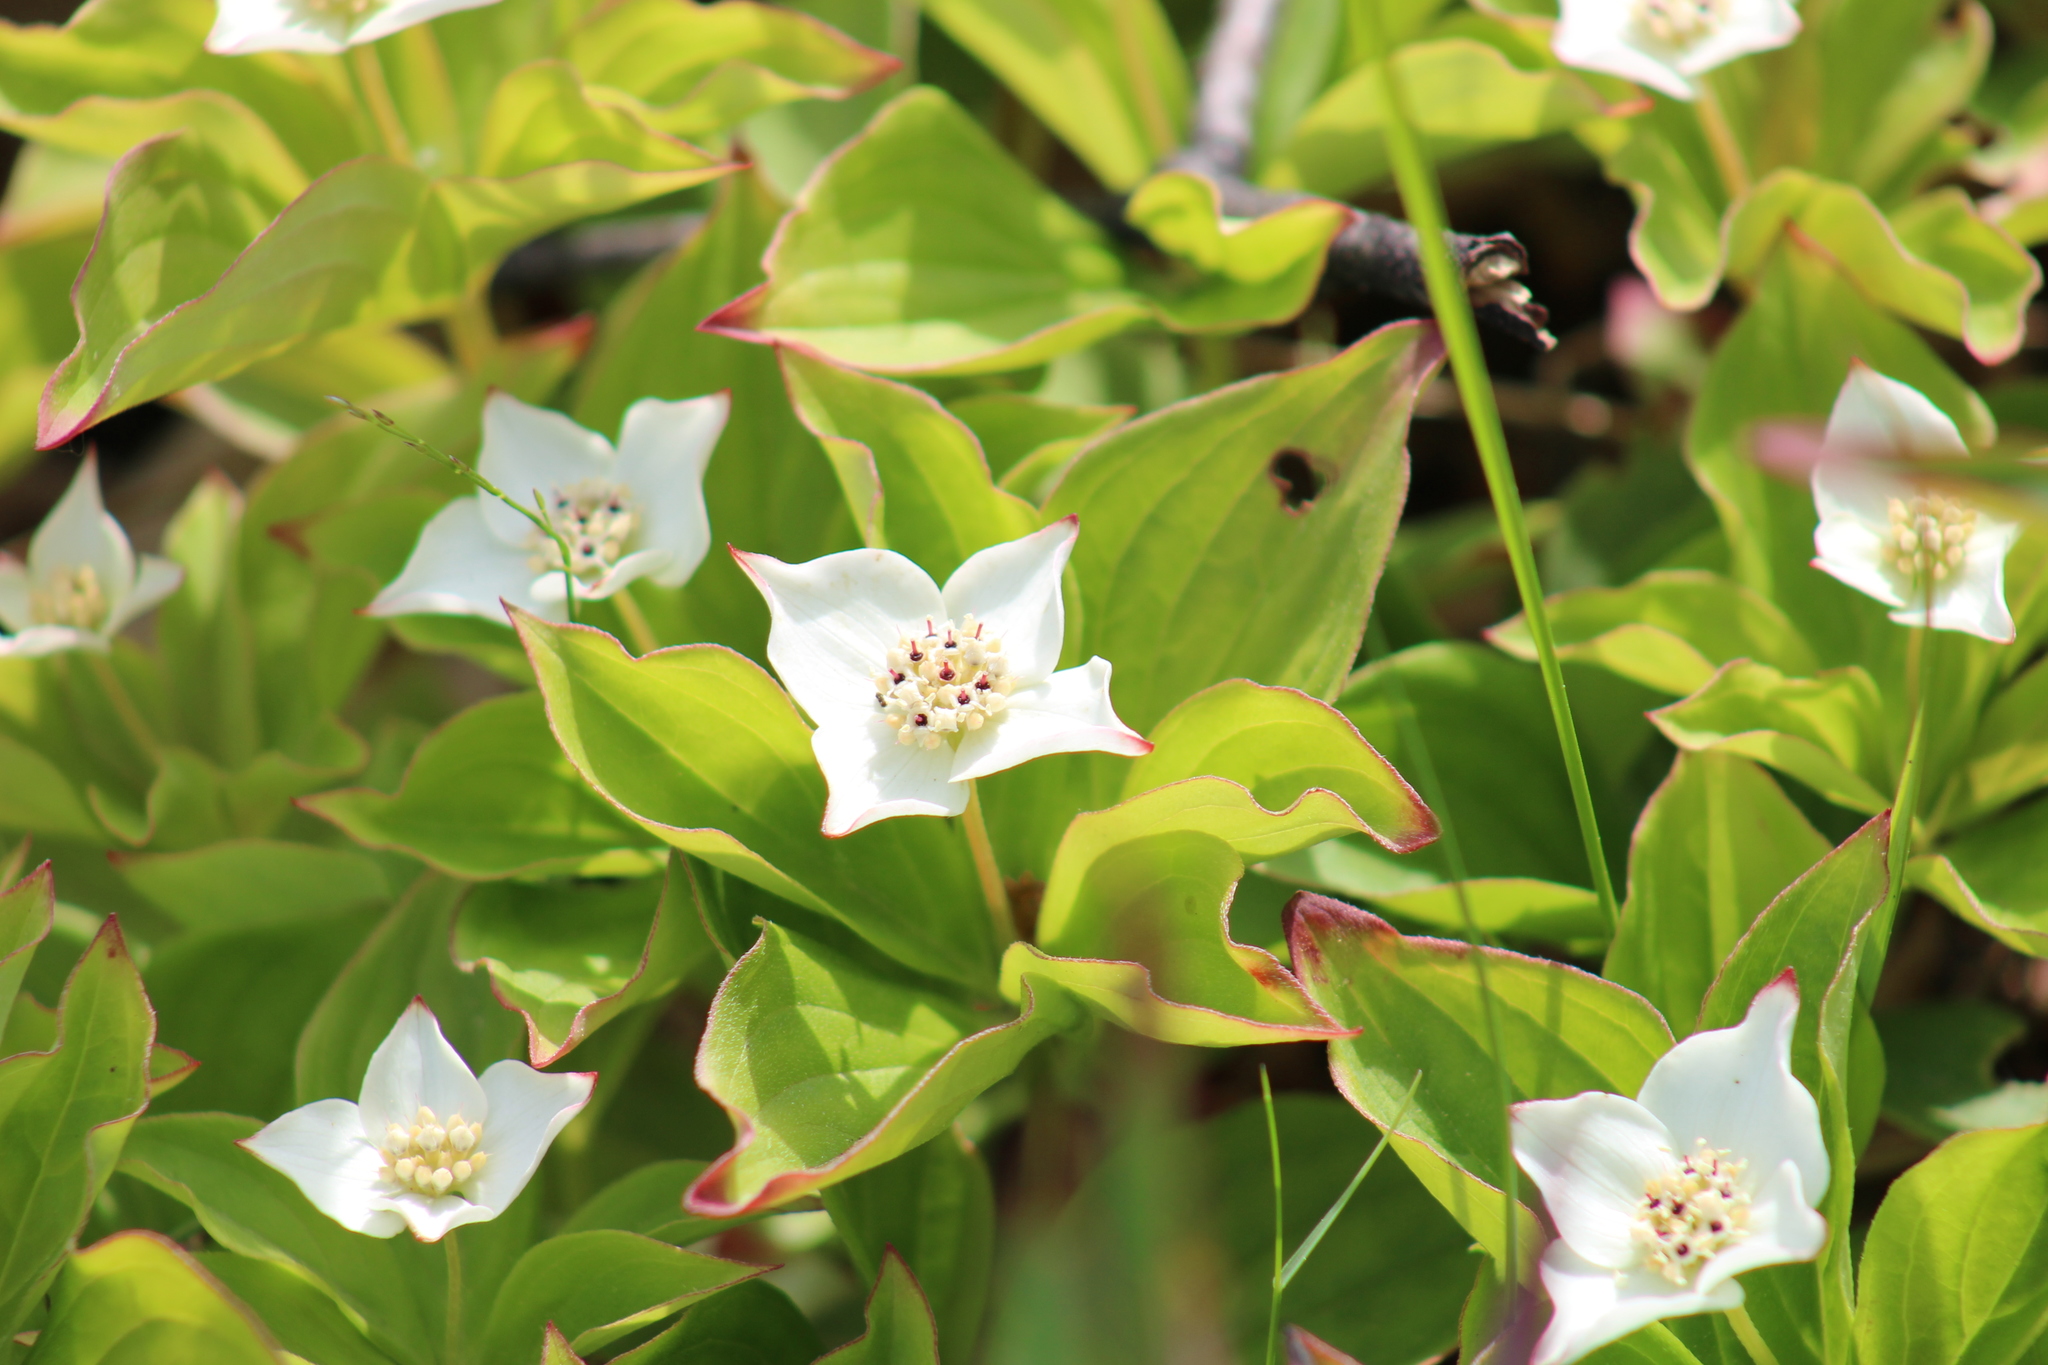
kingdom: Plantae
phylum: Tracheophyta
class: Magnoliopsida
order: Cornales
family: Cornaceae
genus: Cornus
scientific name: Cornus canadensis
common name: Creeping dogwood
